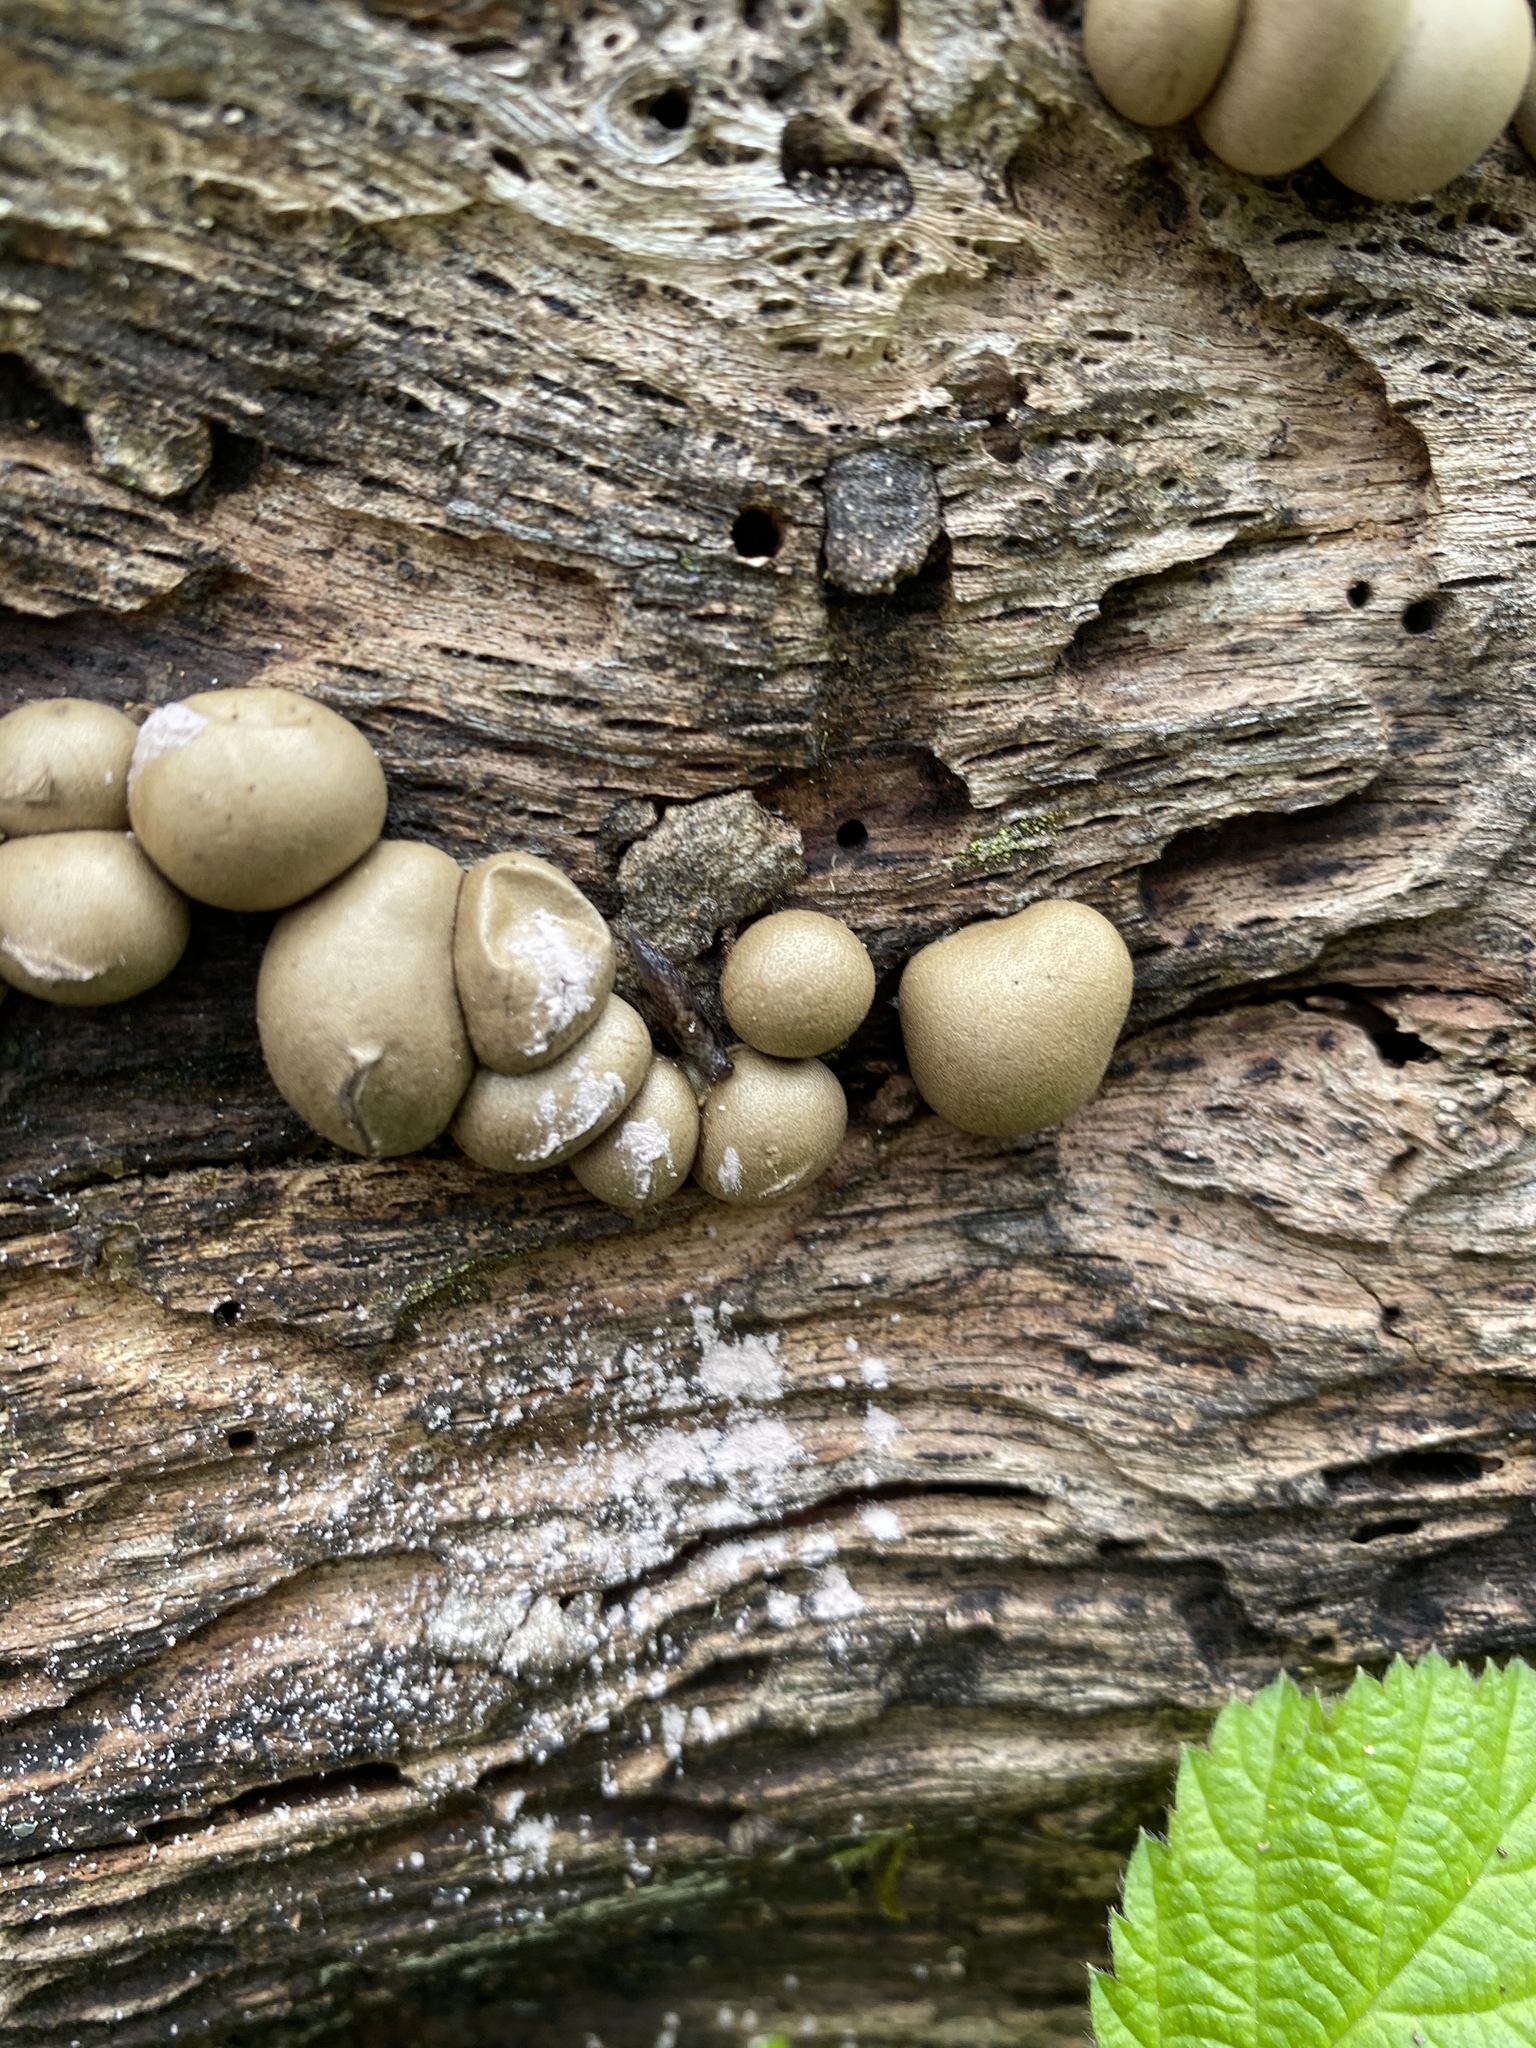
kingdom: Protozoa
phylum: Mycetozoa
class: Myxomycetes
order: Cribrariales
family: Tubiferaceae
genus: Lycogala
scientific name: Lycogala epidendrum
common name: Wolf's milk
